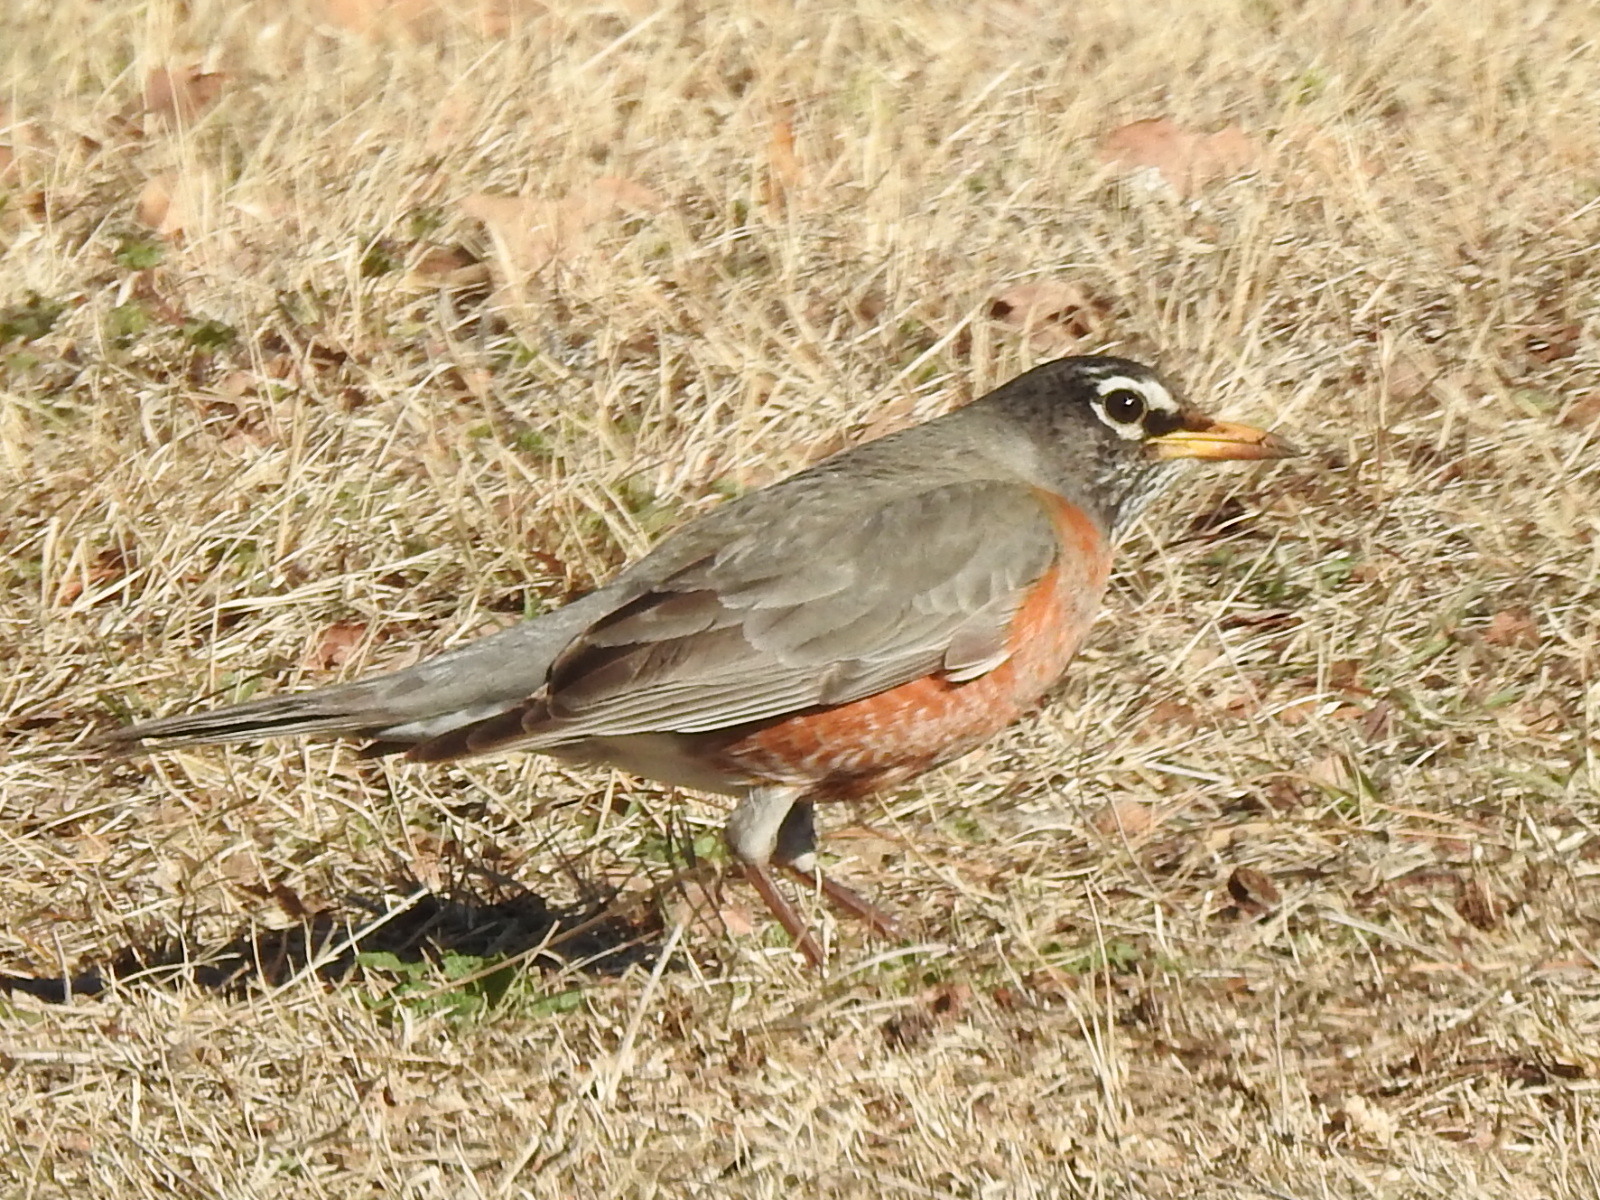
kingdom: Animalia
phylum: Chordata
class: Aves
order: Passeriformes
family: Turdidae
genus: Turdus
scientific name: Turdus migratorius
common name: American robin
